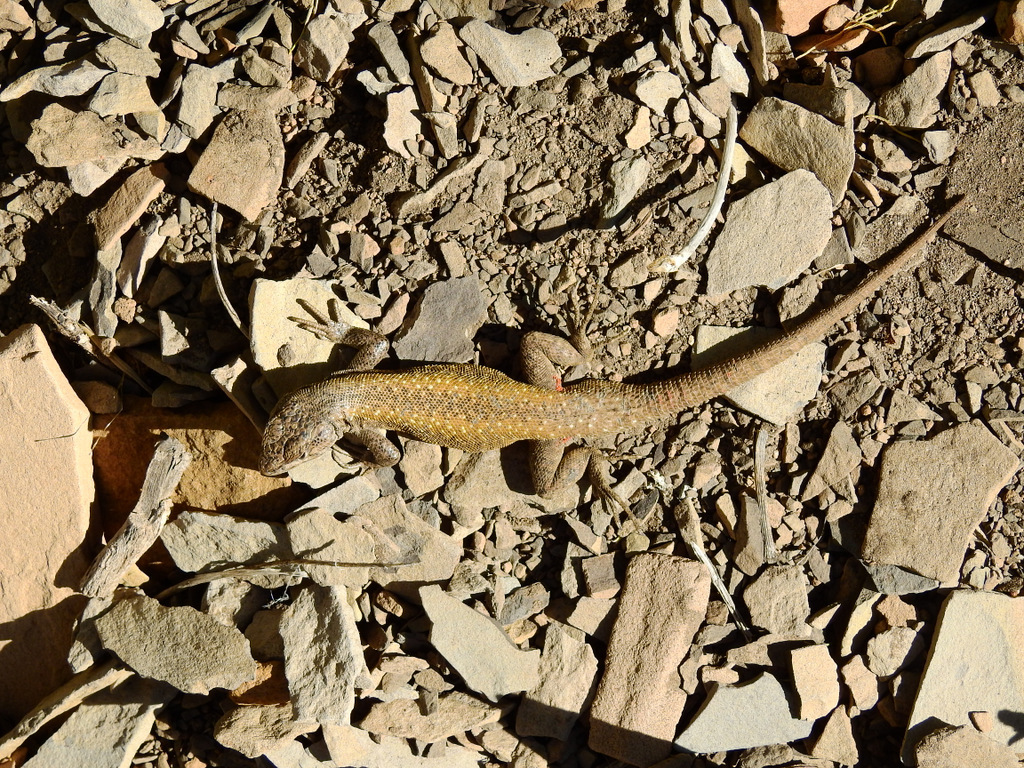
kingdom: Animalia
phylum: Chordata
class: Squamata
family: Liolaemidae
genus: Liolaemus
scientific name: Liolaemus smaug
